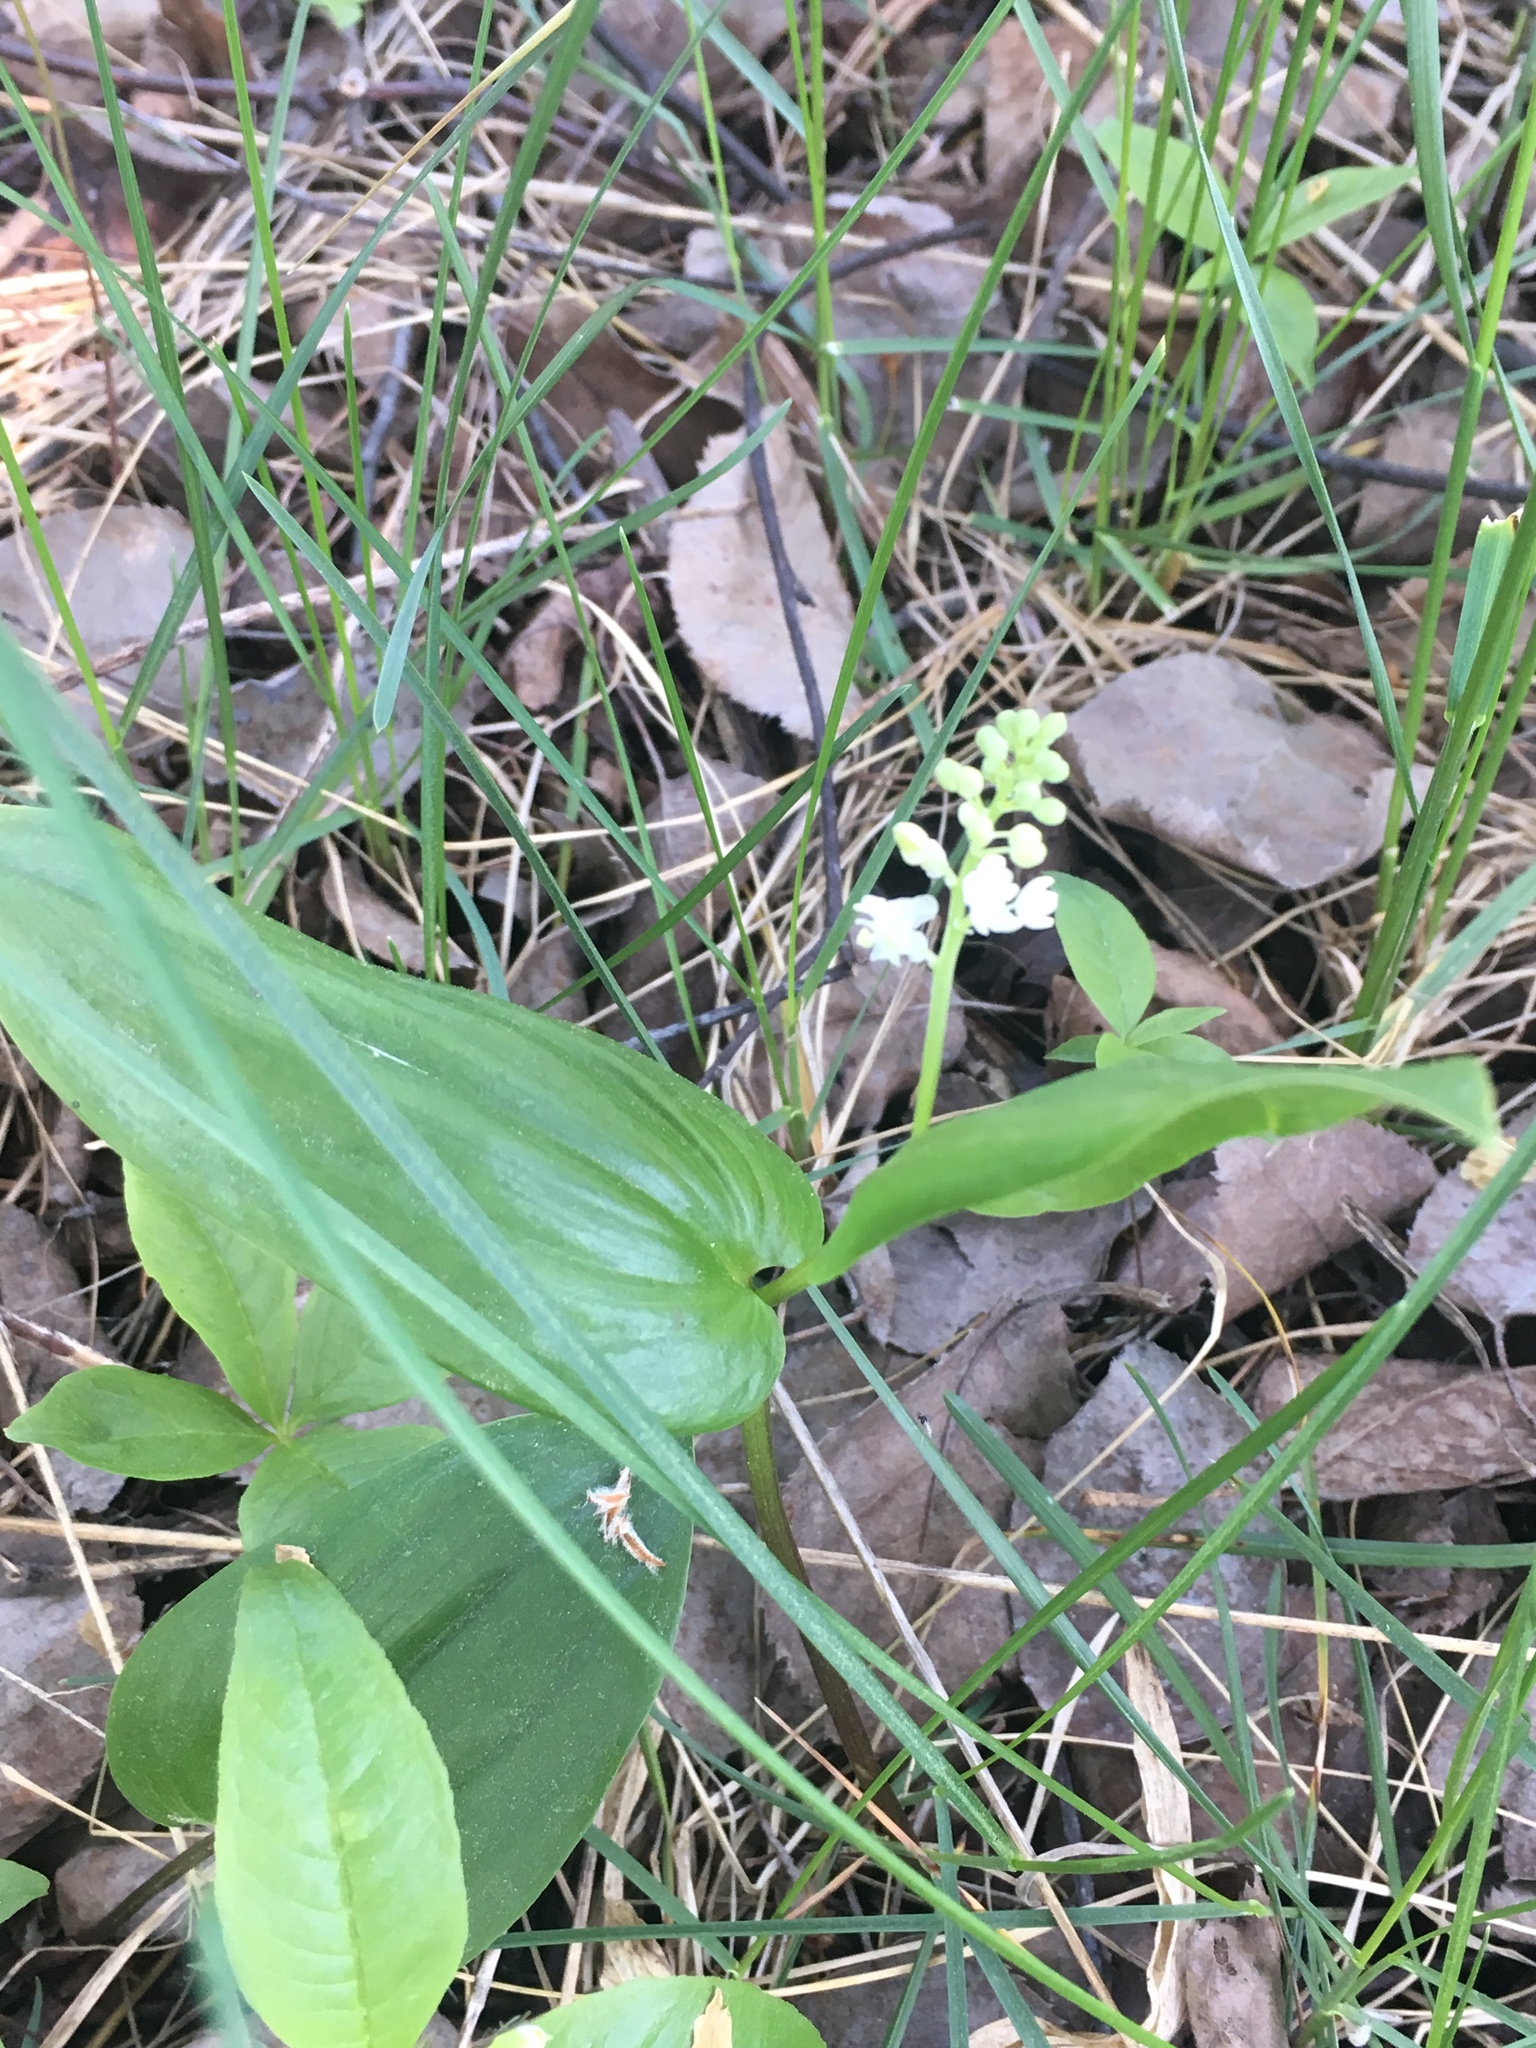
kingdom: Plantae
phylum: Tracheophyta
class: Liliopsida
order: Asparagales
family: Asparagaceae
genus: Maianthemum
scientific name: Maianthemum canadense
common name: False lily-of-the-valley
